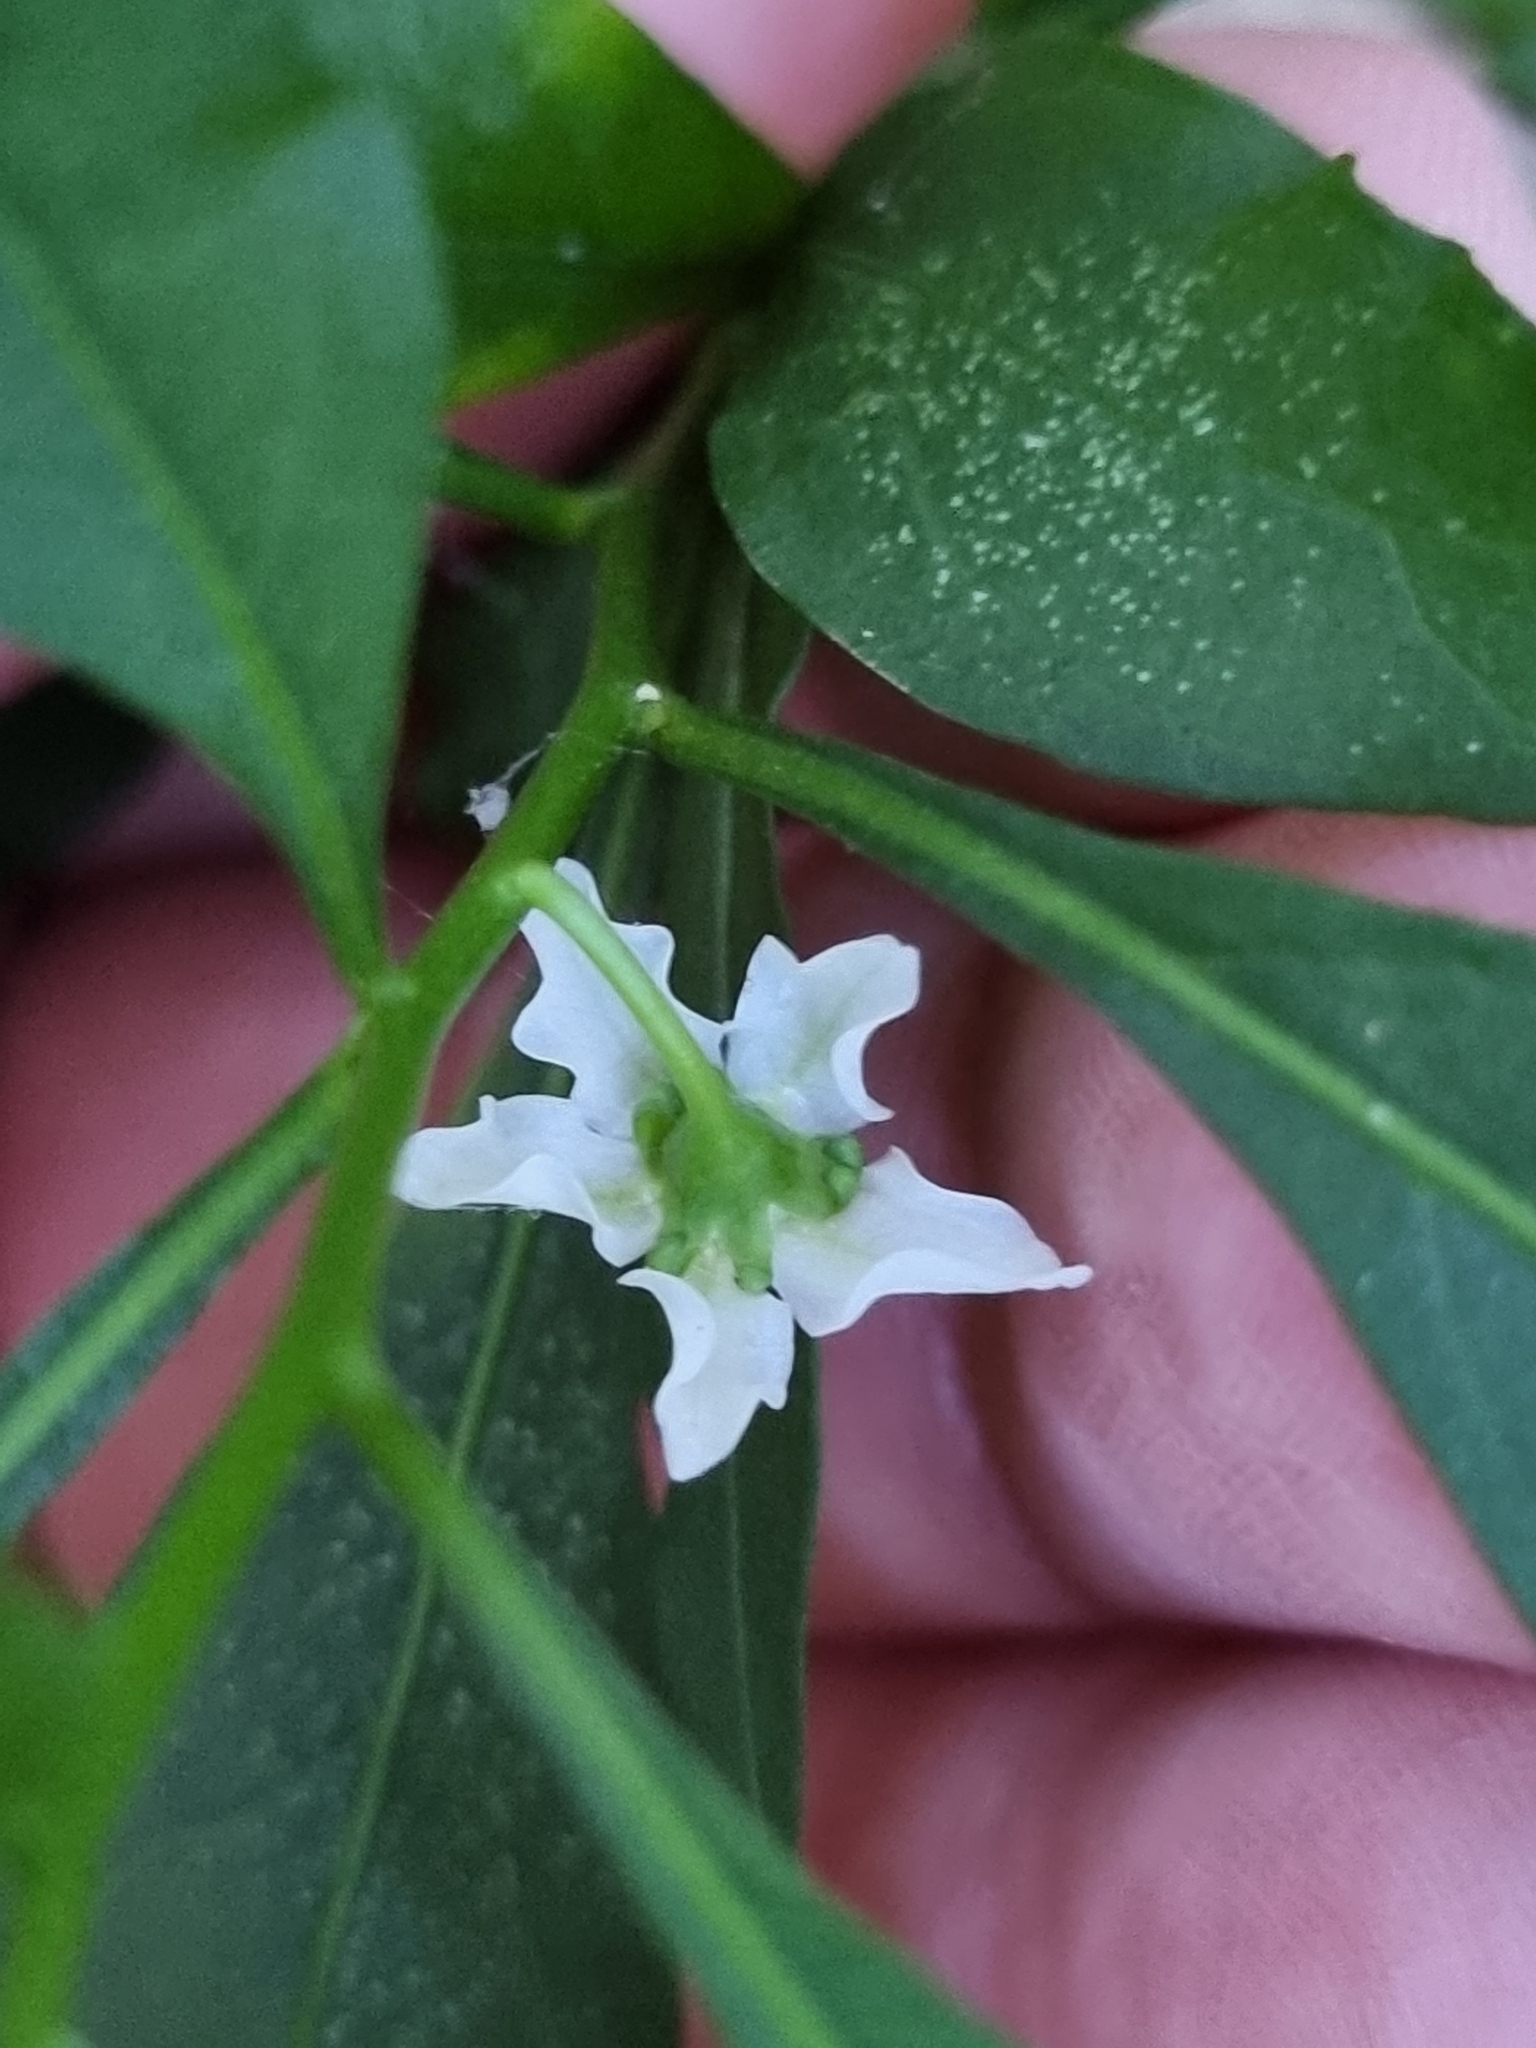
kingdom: Plantae
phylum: Tracheophyta
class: Magnoliopsida
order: Solanales
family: Solanaceae
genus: Solanum
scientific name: Solanum pseudocapsicum
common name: Jerusalem cherry
